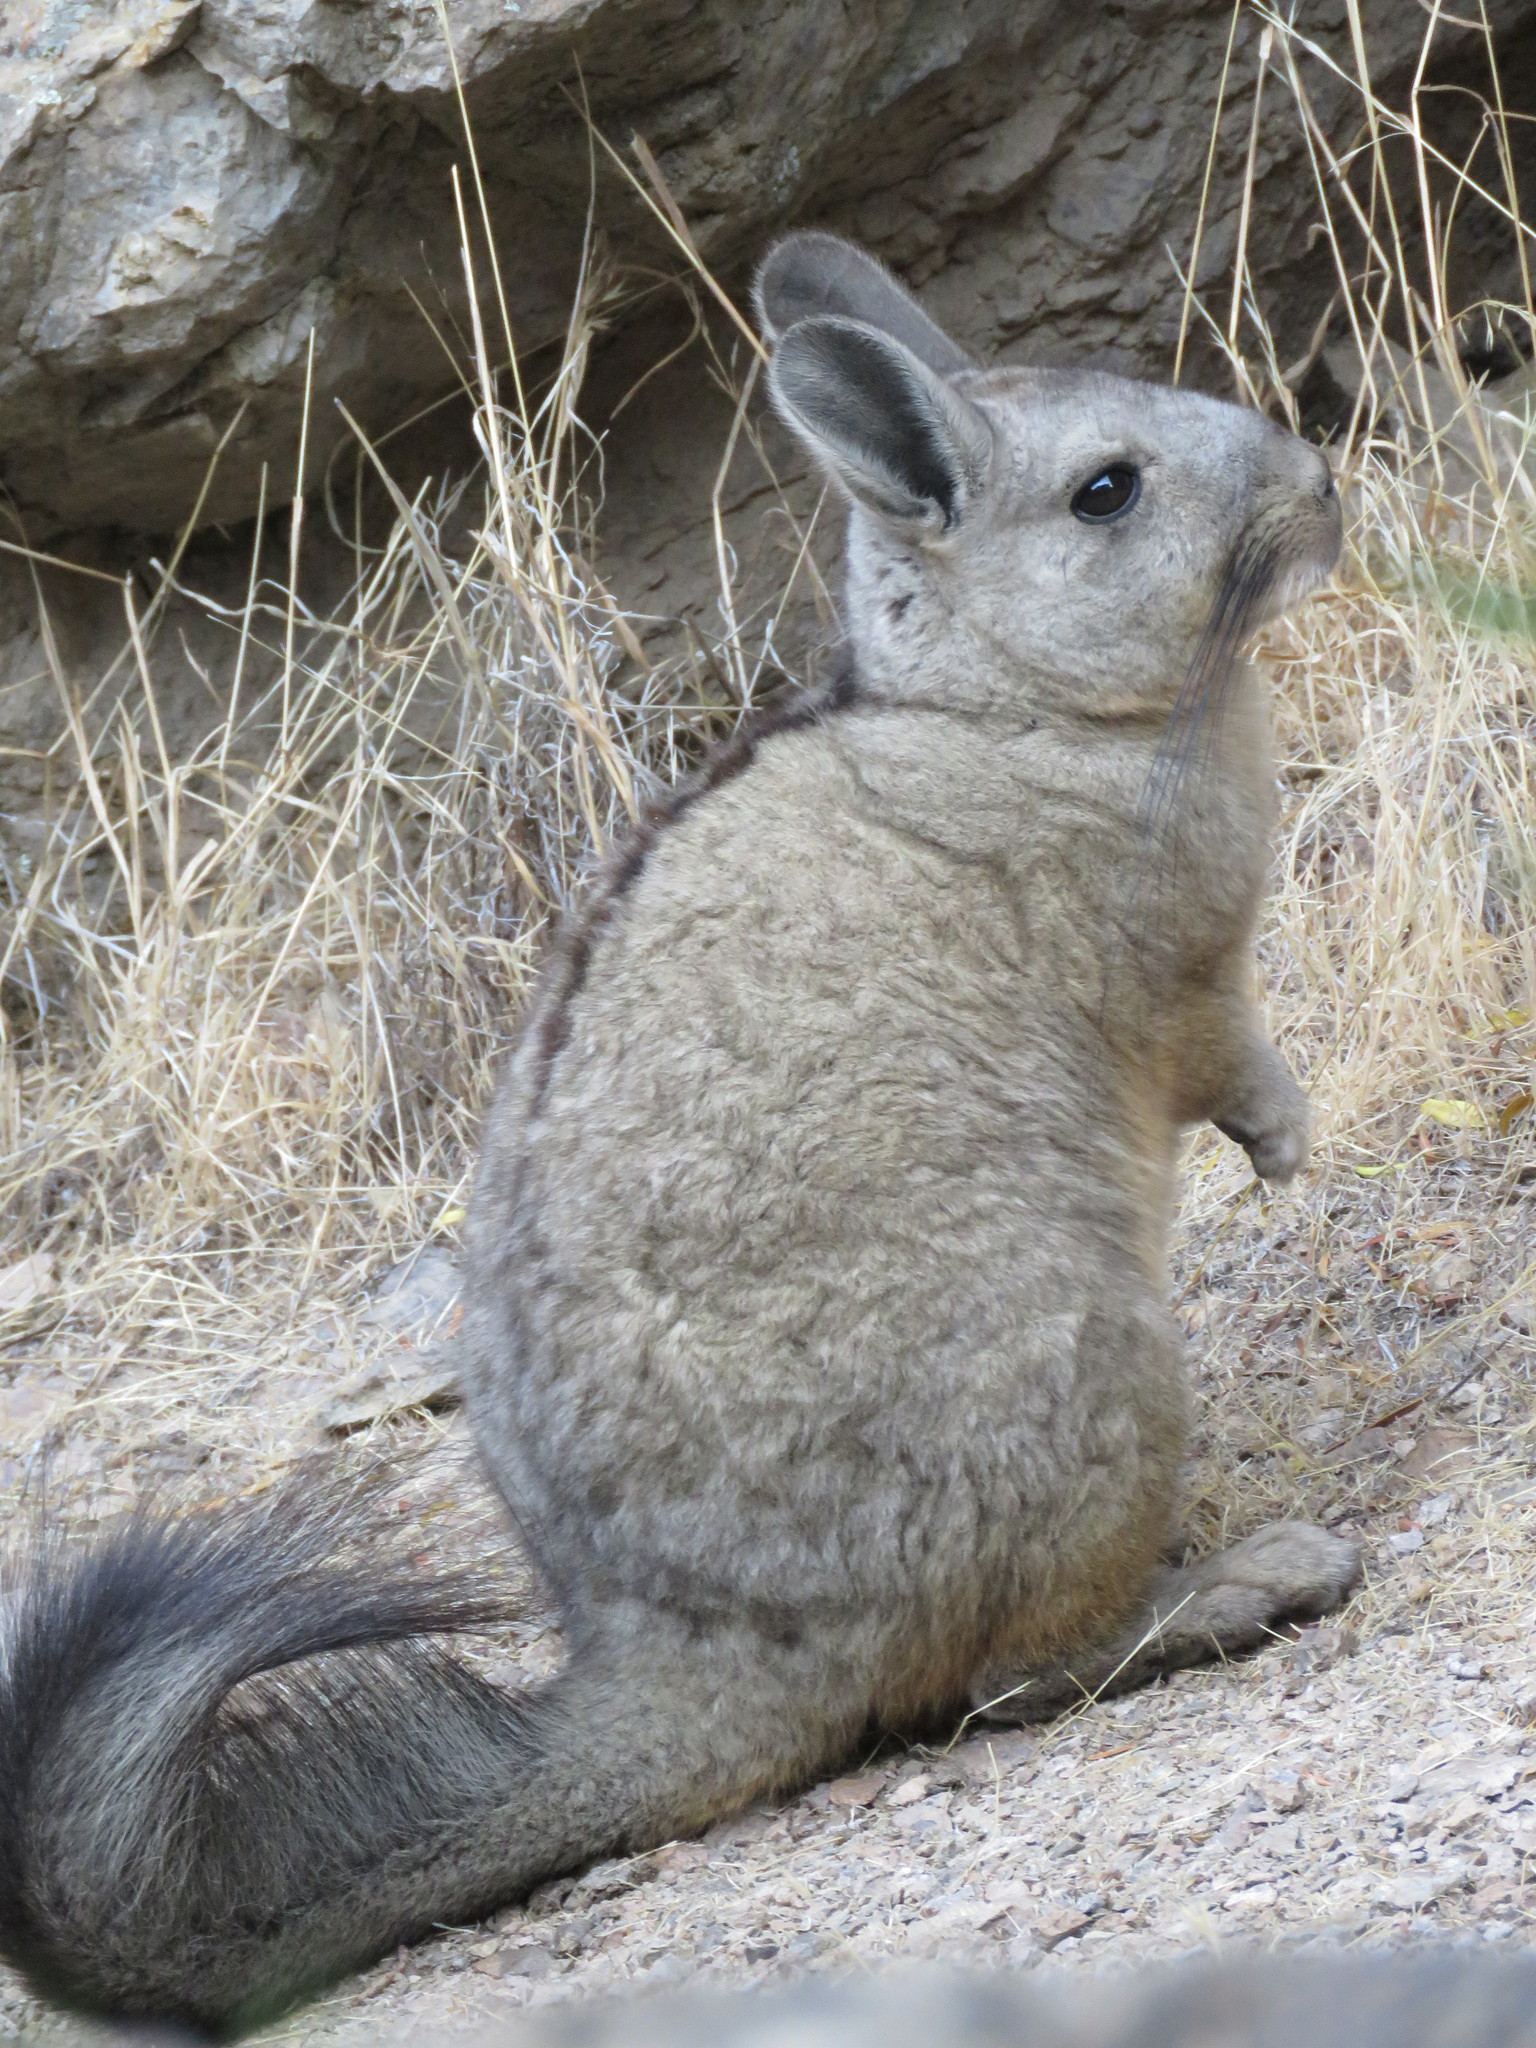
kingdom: Animalia
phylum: Chordata
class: Mammalia
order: Rodentia
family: Chinchillidae
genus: Lagidium
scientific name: Lagidium viscacia
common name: Southern viscacha
